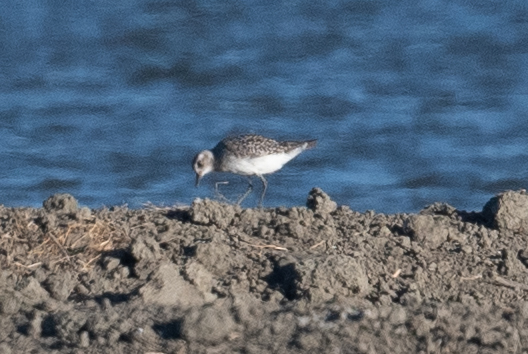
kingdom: Animalia
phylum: Chordata
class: Aves
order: Charadriiformes
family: Charadriidae
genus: Pluvialis
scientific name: Pluvialis squatarola
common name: Grey plover
